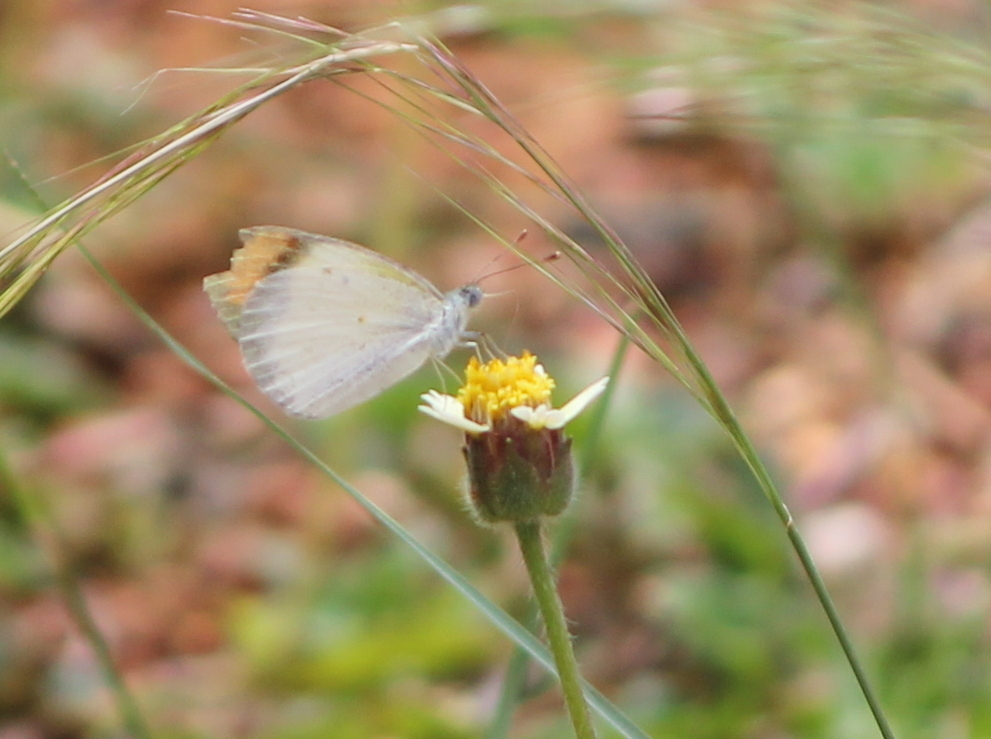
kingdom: Animalia
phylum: Arthropoda
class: Insecta
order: Lepidoptera
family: Pieridae
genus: Colotis
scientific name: Colotis etrida
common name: Little orange tip
